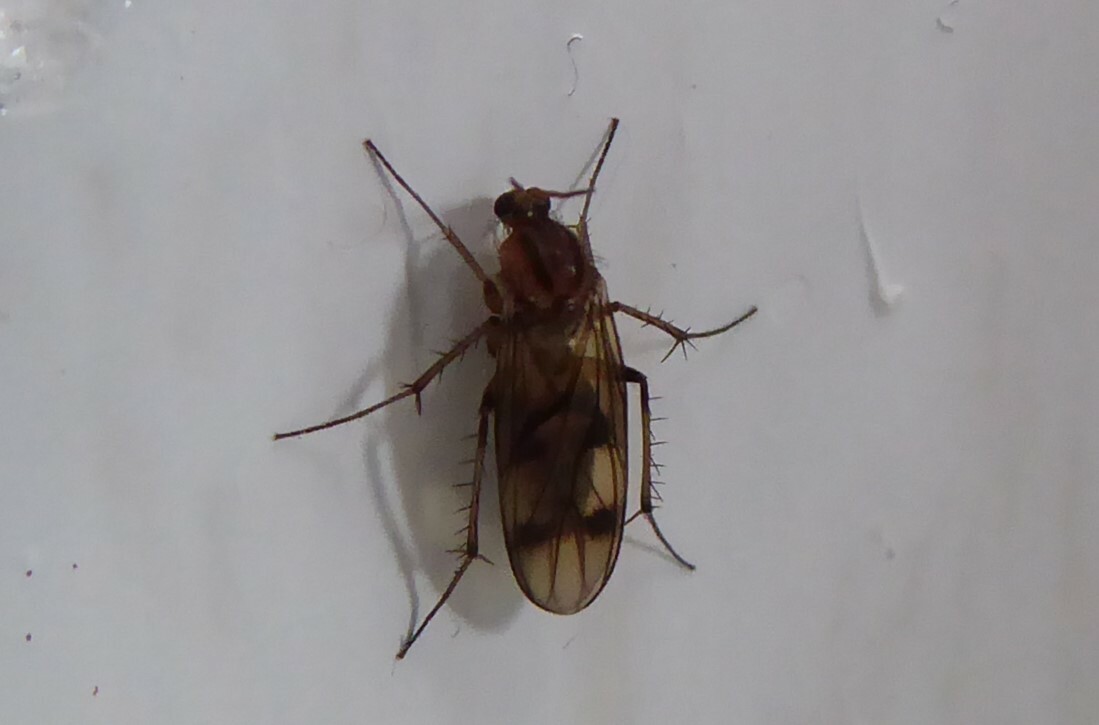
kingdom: Animalia
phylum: Arthropoda
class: Insecta
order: Diptera
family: Mycetophilidae
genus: Anomalomyia
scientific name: Anomalomyia guttata
